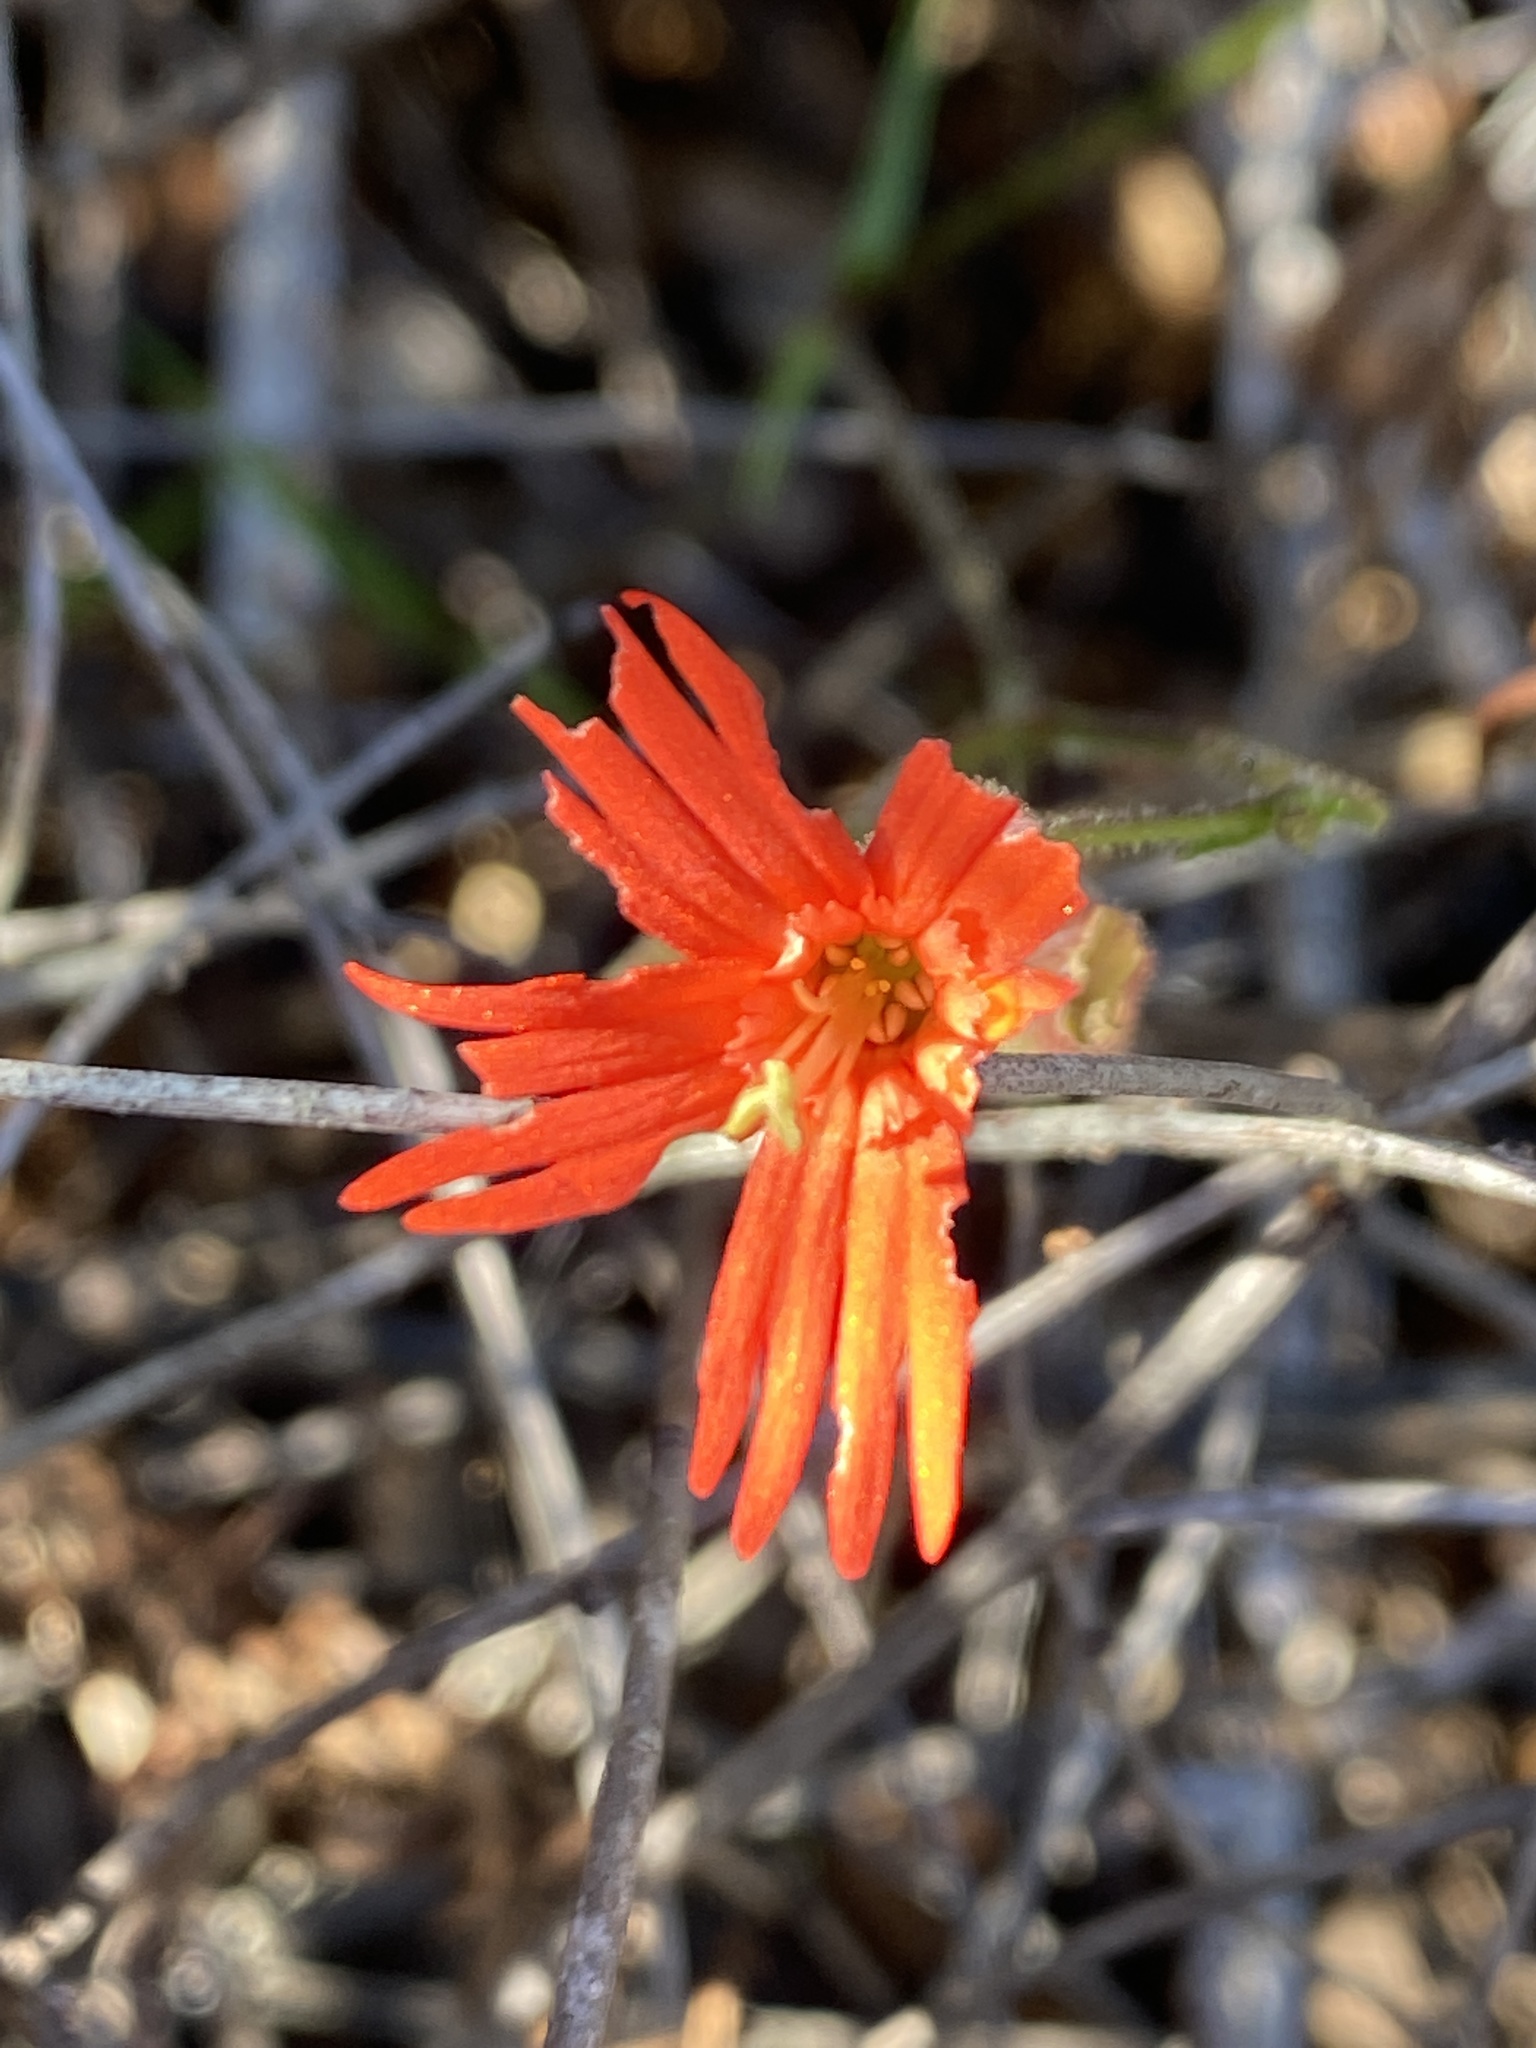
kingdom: Plantae
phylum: Tracheophyta
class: Magnoliopsida
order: Caryophyllales
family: Caryophyllaceae
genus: Silene
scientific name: Silene laciniata
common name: Indian-pink
